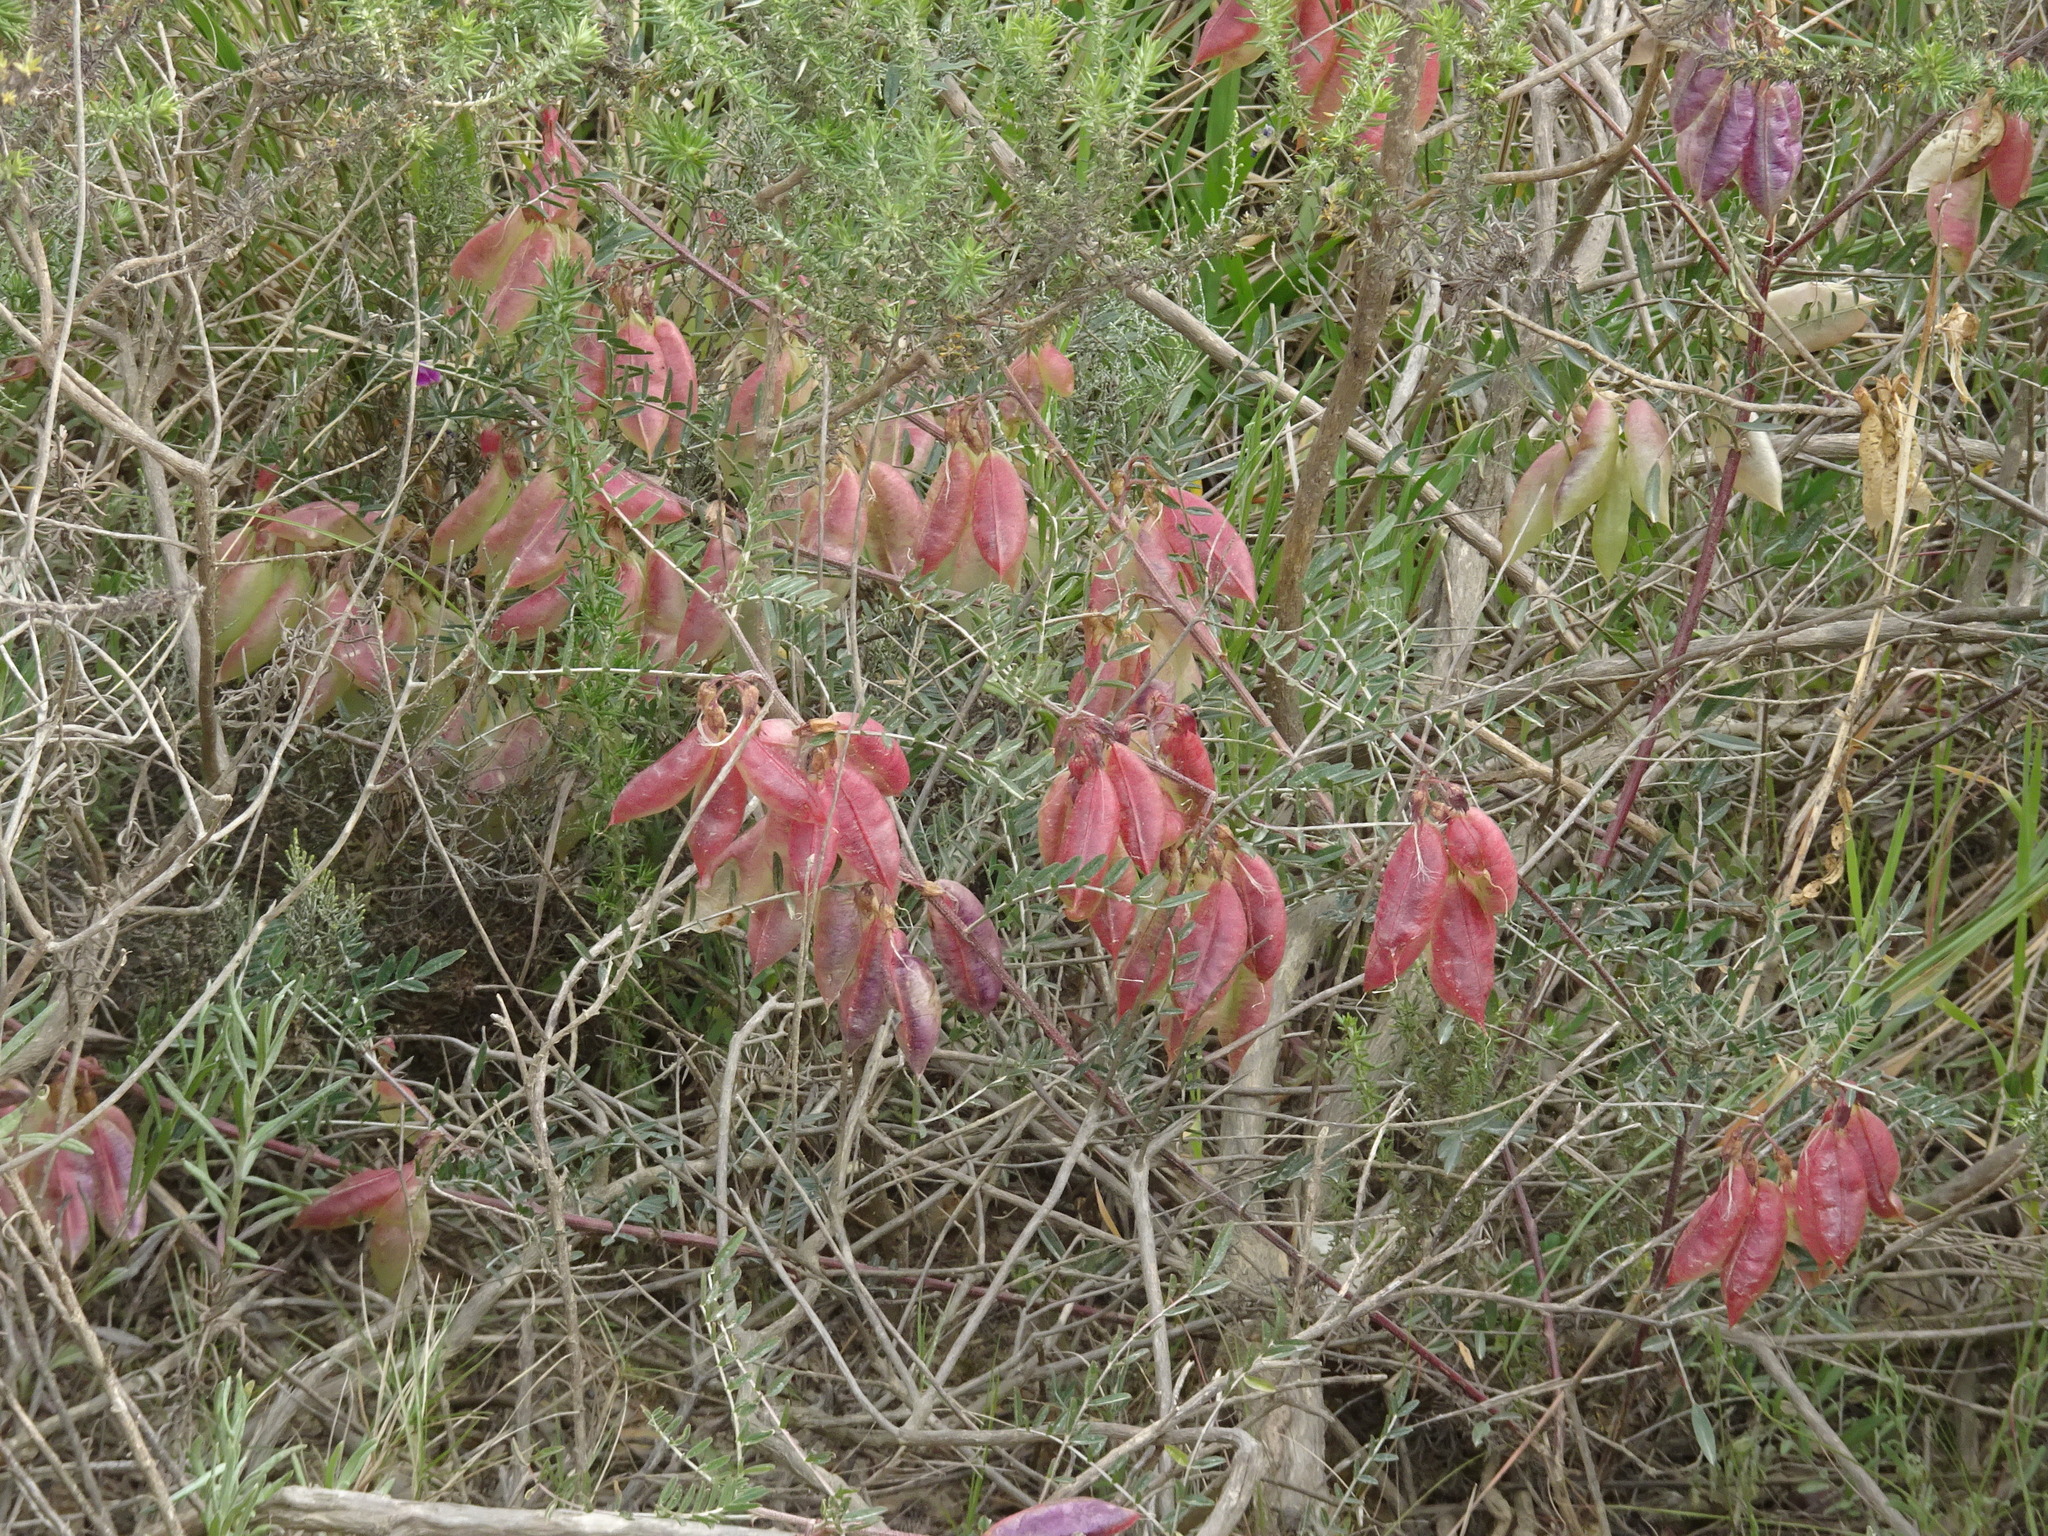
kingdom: Plantae
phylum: Tracheophyta
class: Magnoliopsida
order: Fabales
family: Fabaceae
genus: Lessertia
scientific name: Lessertia frutescens
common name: Balloon-pea
